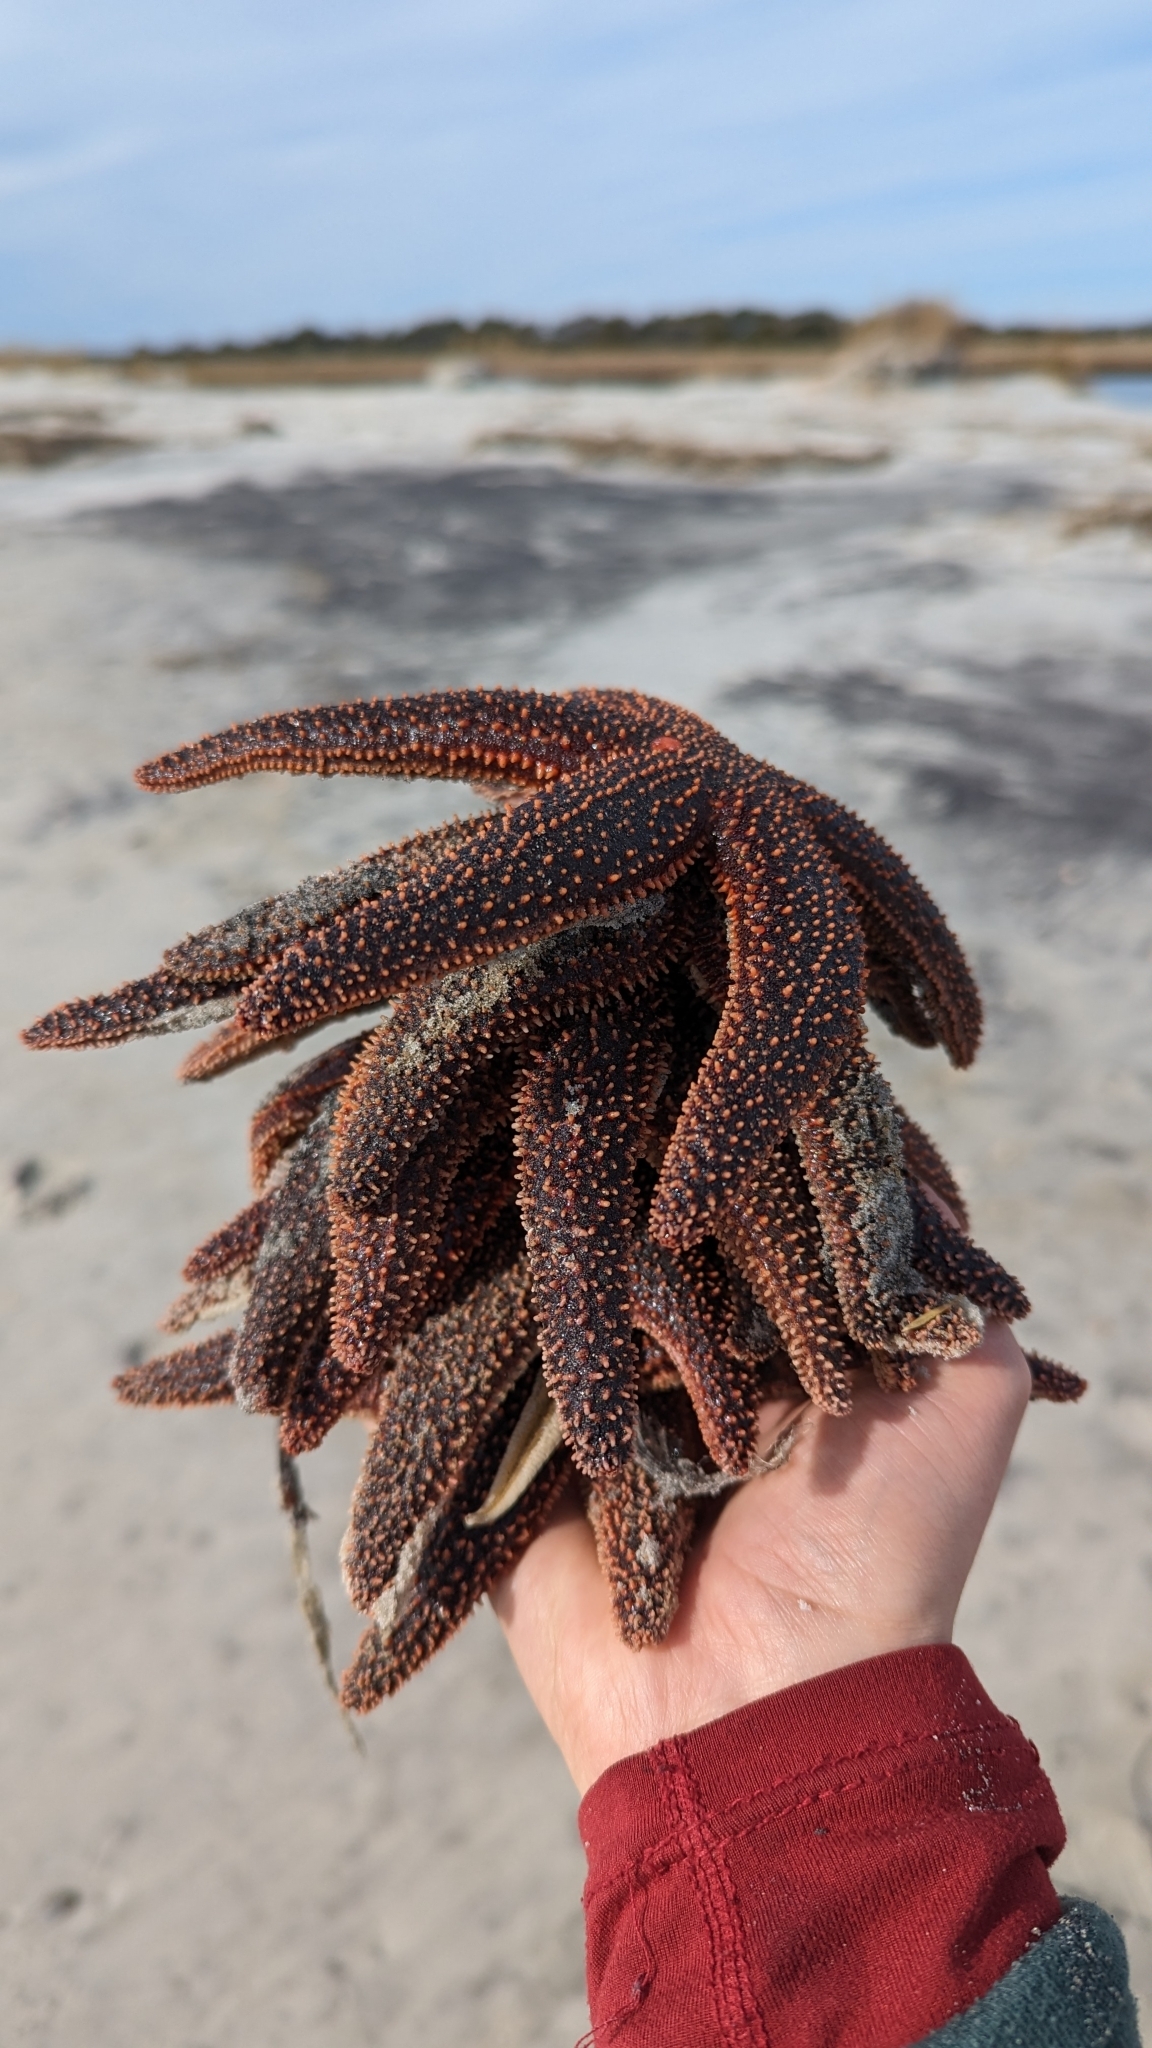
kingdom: Animalia
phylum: Echinodermata
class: Asteroidea
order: Forcipulatida
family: Asteriidae
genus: Asterias
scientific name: Asterias forbesi
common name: Forbes's sea star
